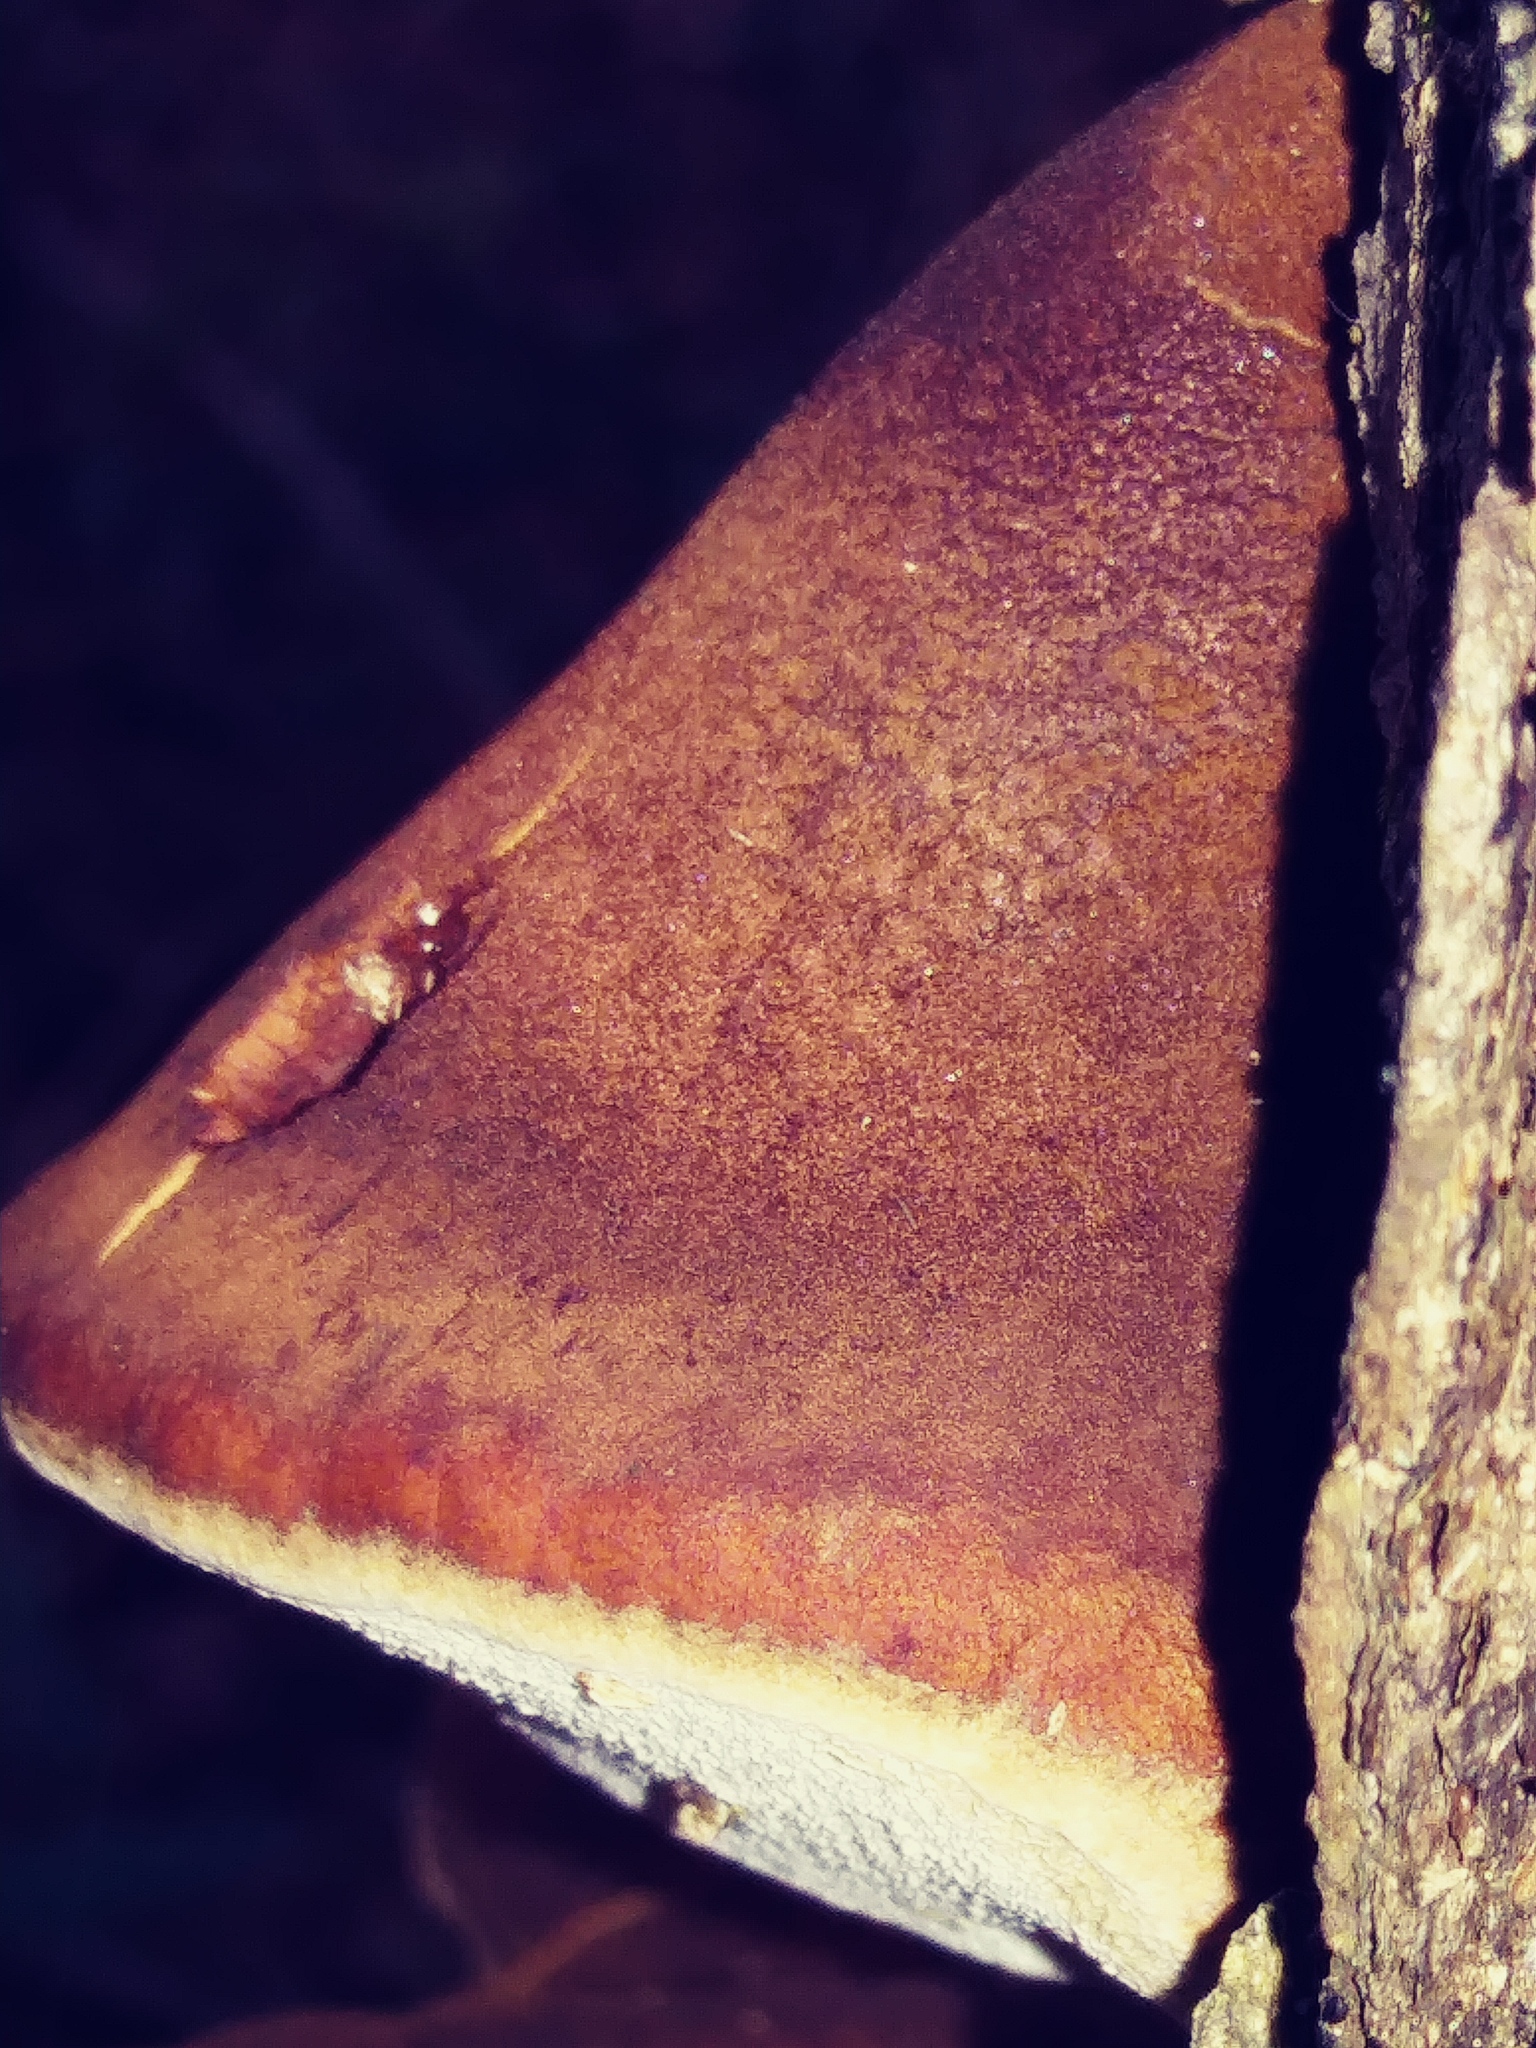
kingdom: Fungi
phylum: Basidiomycota
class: Agaricomycetes
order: Polyporales
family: Ischnodermataceae
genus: Ischnoderma
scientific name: Ischnoderma resinosum
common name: Resinous polypore
